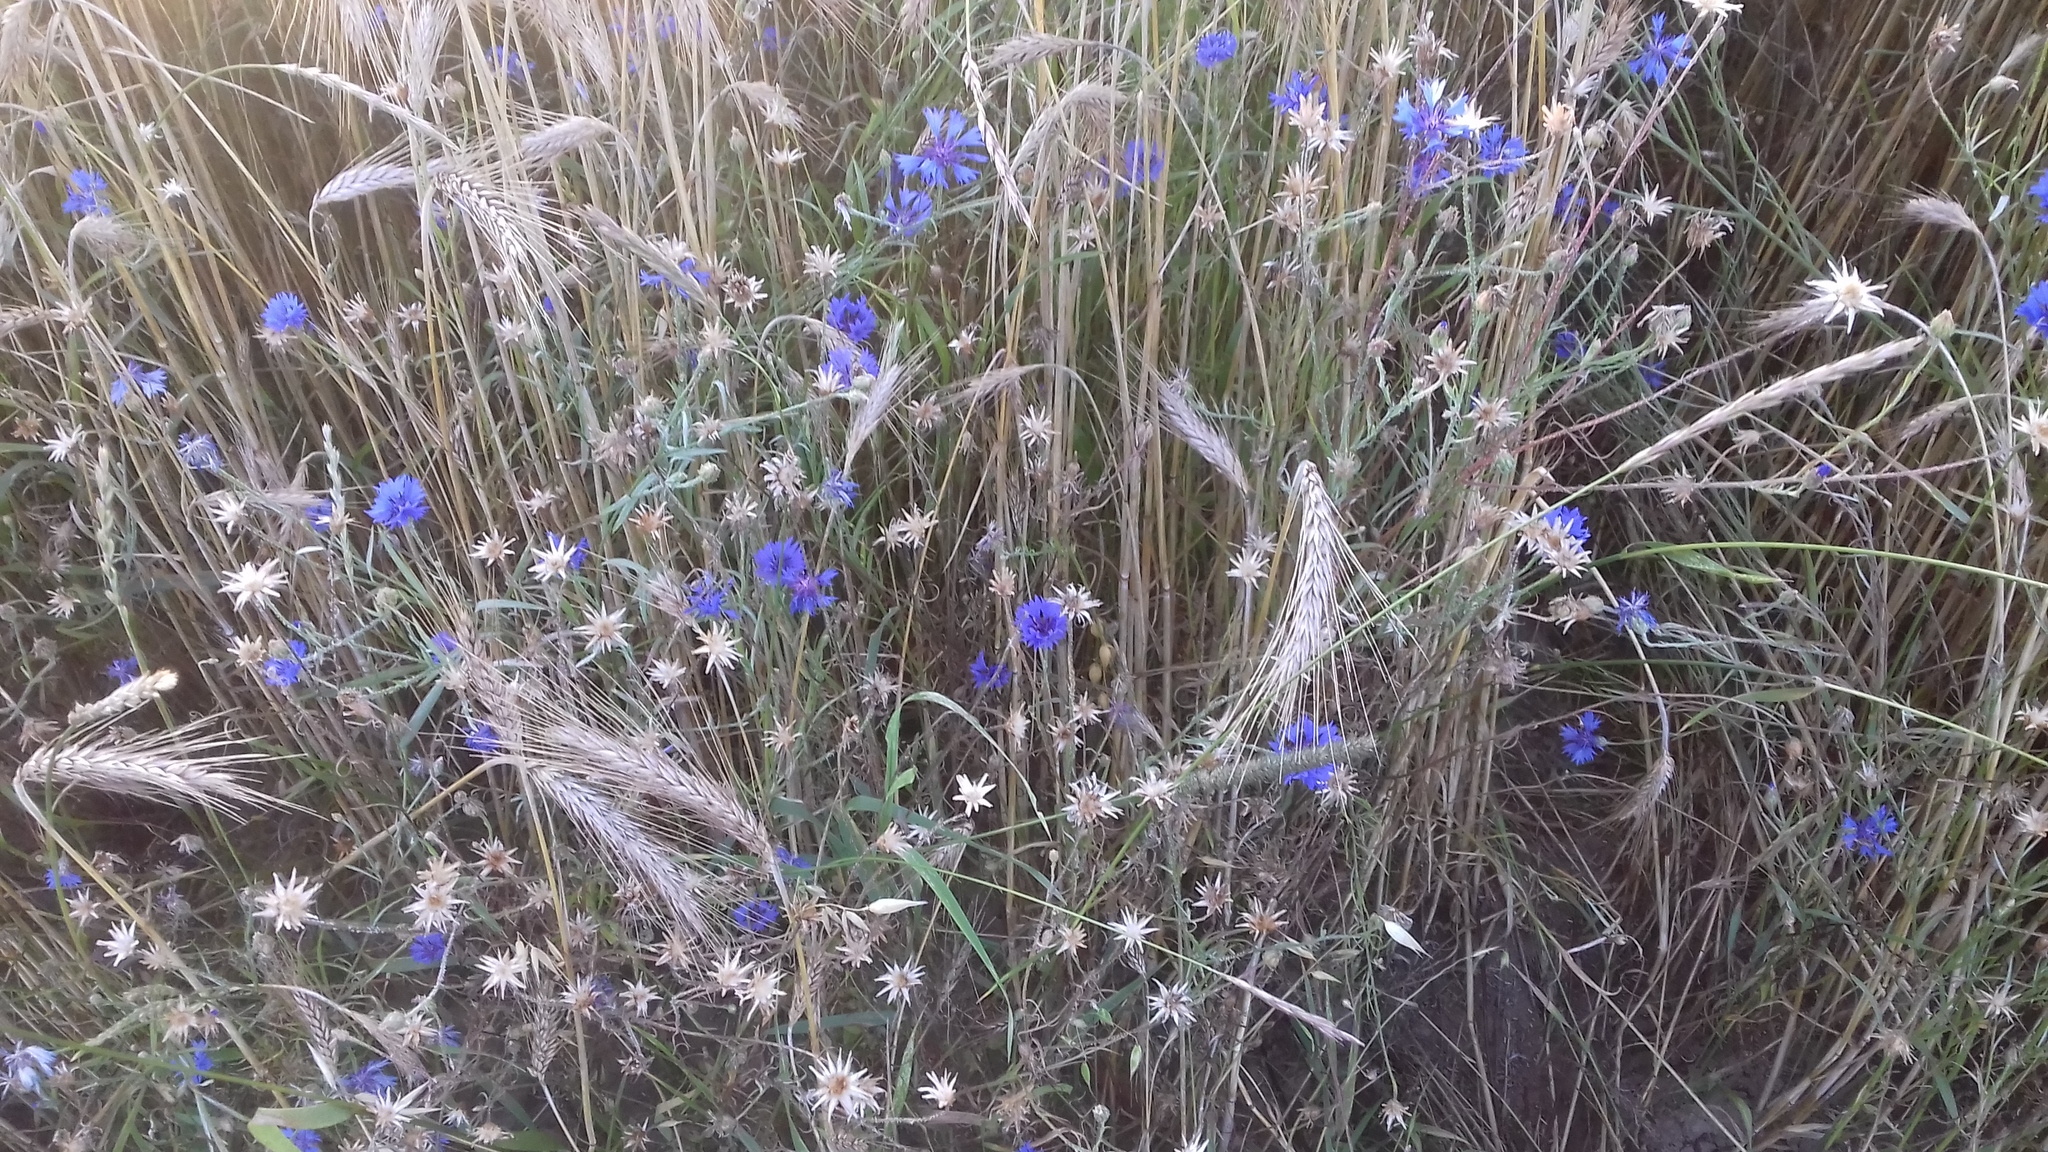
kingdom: Plantae
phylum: Tracheophyta
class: Magnoliopsida
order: Asterales
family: Asteraceae
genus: Centaurea
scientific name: Centaurea cyanus
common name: Cornflower
